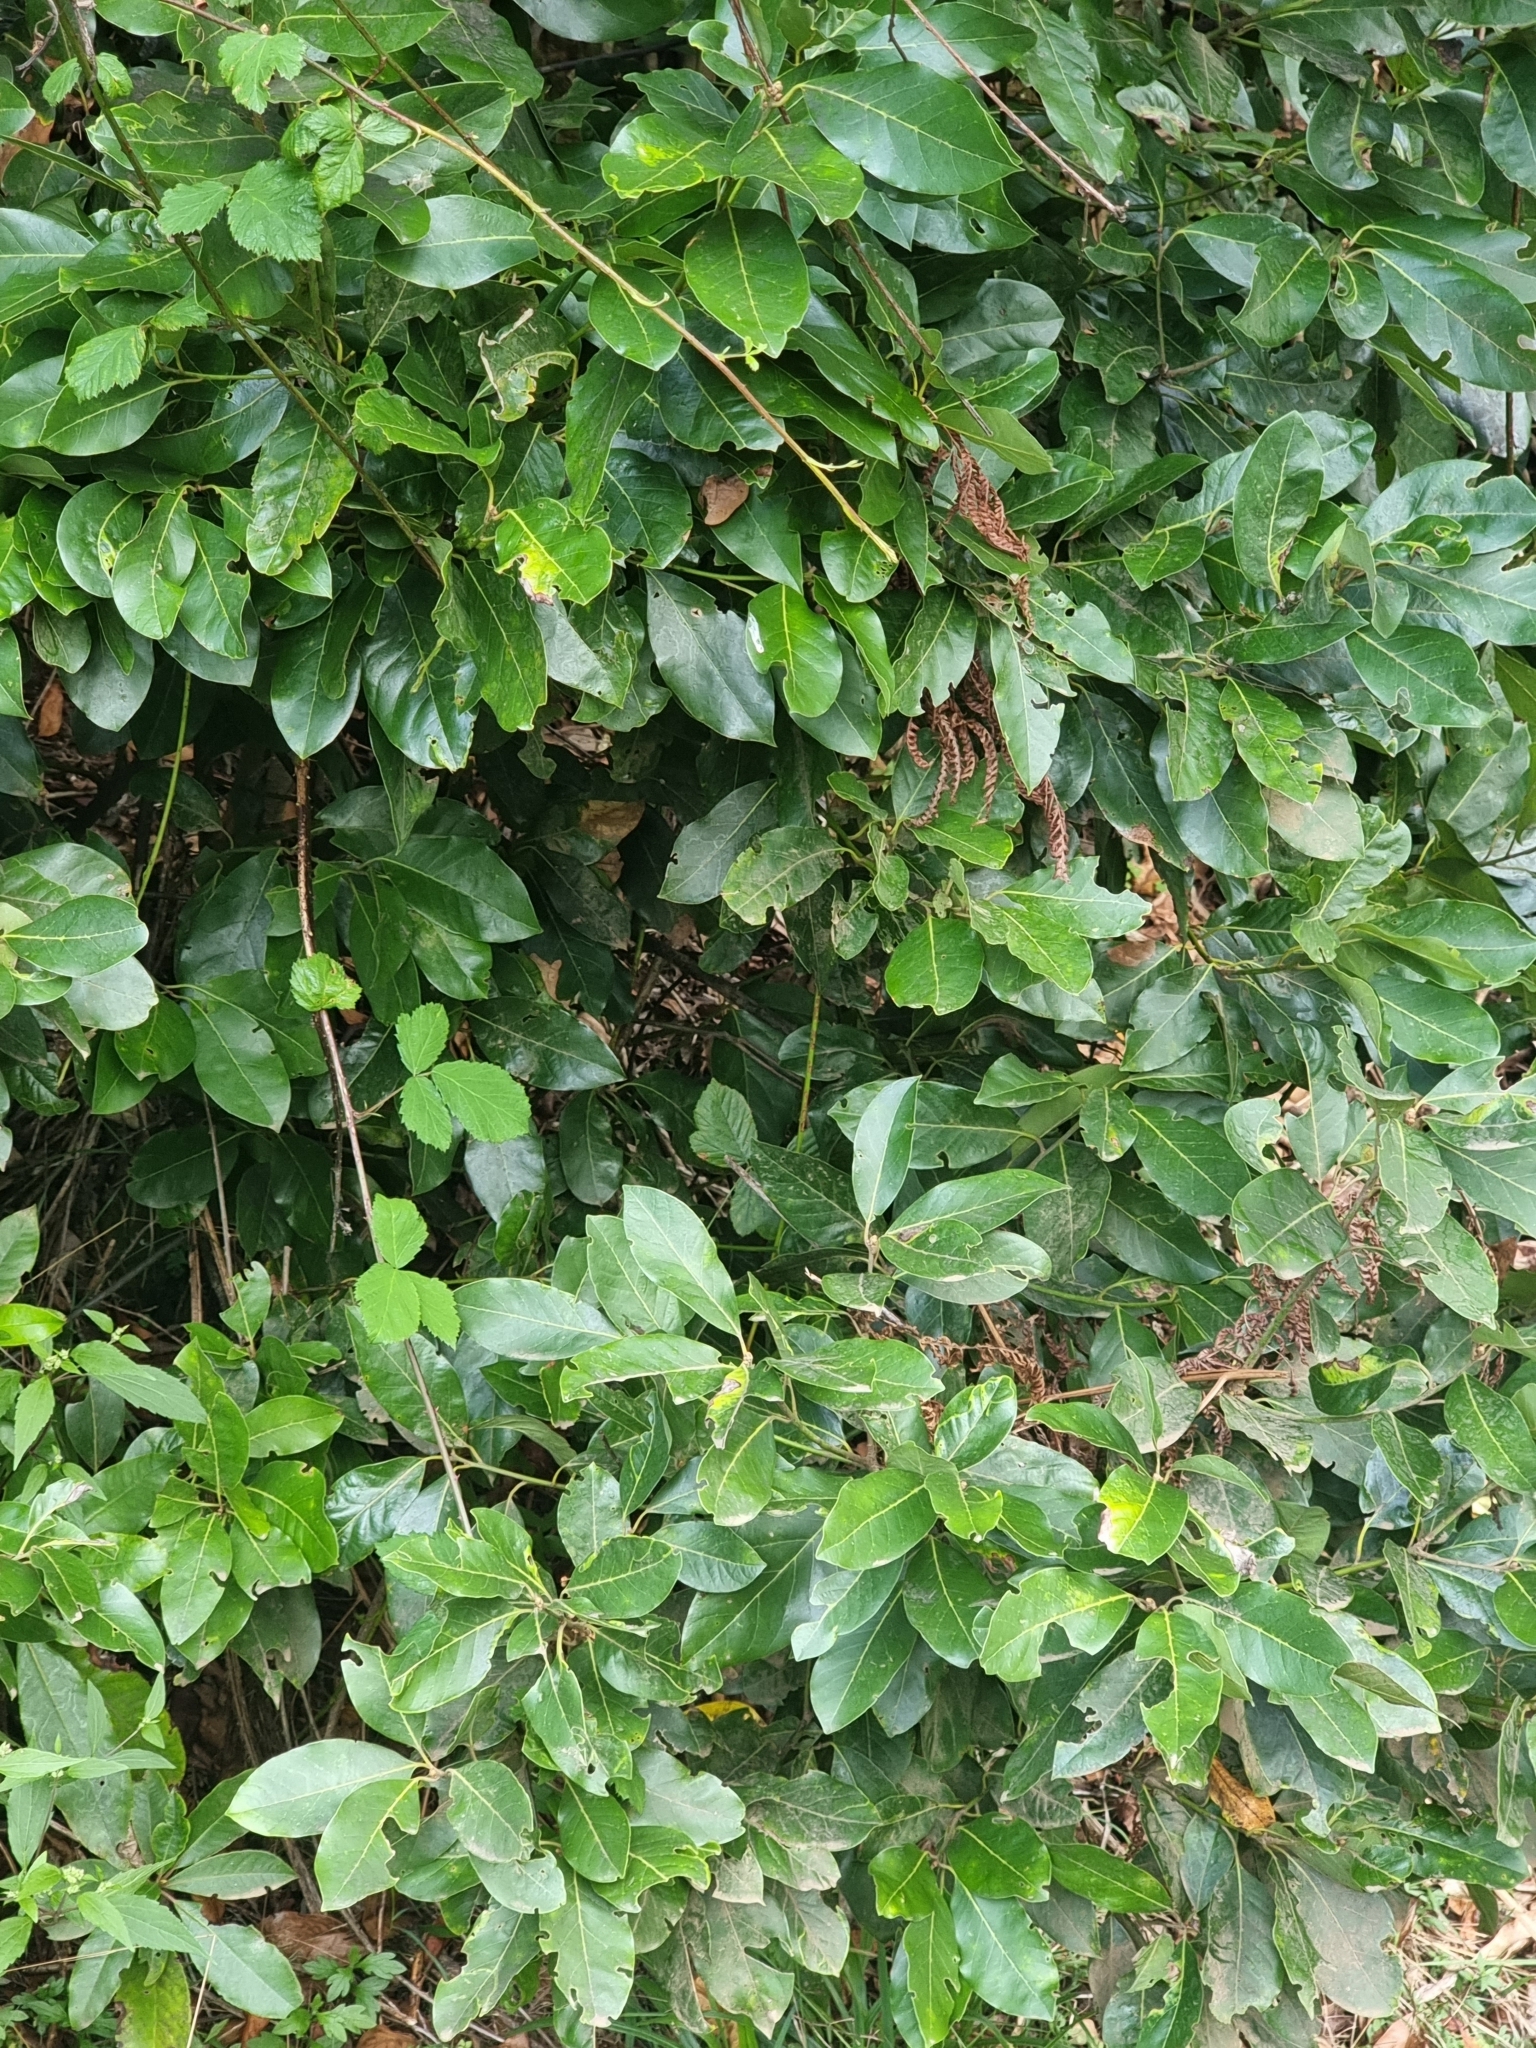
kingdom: Plantae
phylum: Tracheophyta
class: Magnoliopsida
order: Laurales
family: Lauraceae
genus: Laurus
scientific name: Laurus novocanariensis
